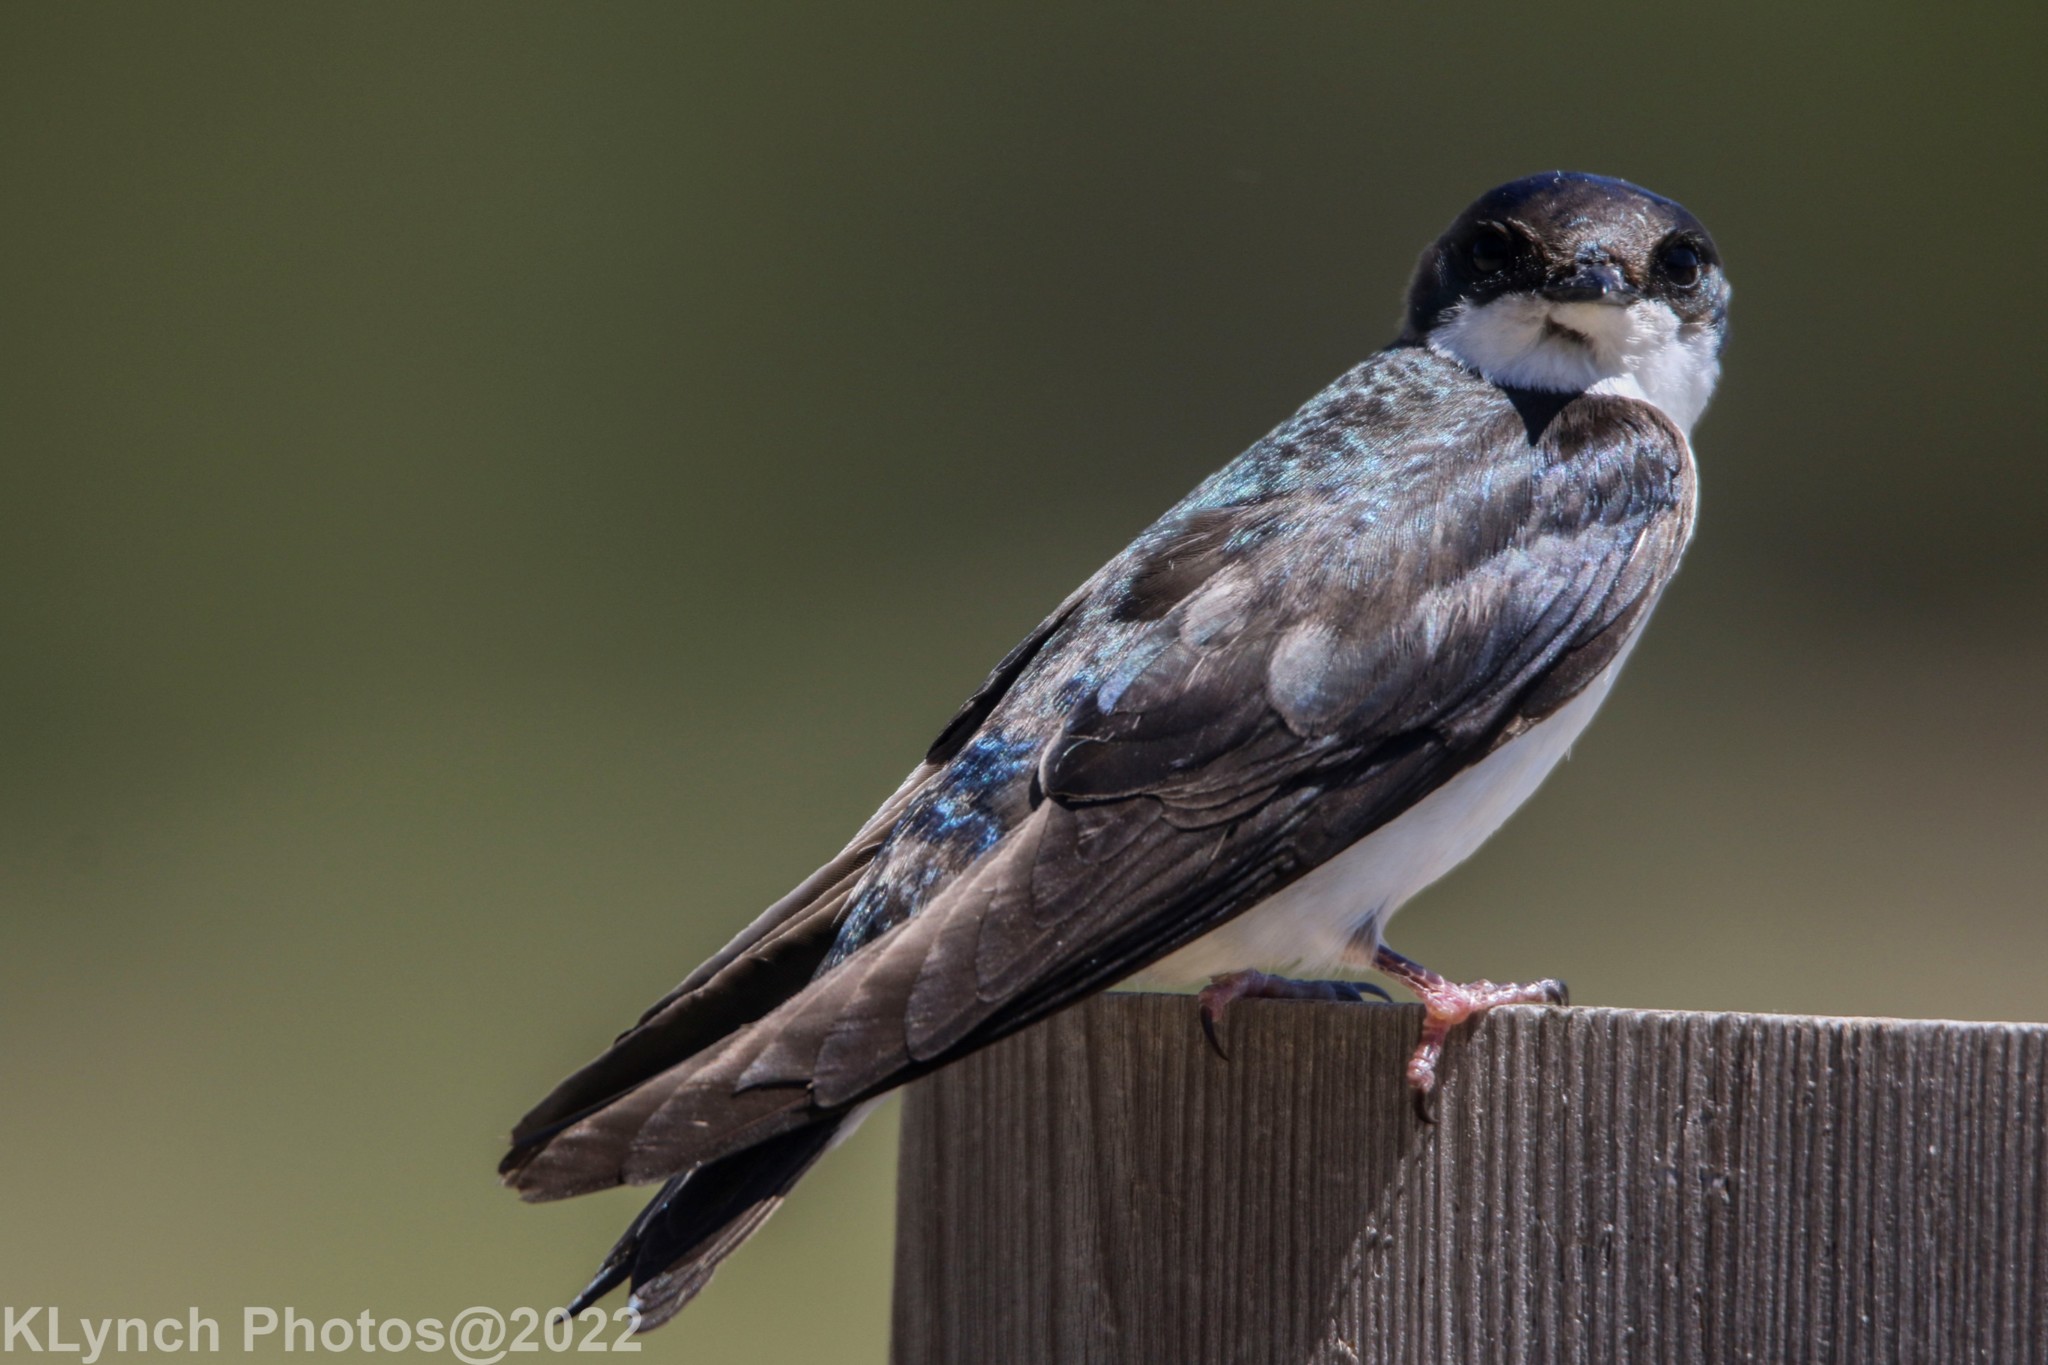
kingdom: Animalia
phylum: Chordata
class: Aves
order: Passeriformes
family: Hirundinidae
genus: Tachycineta
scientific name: Tachycineta bicolor
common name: Tree swallow
